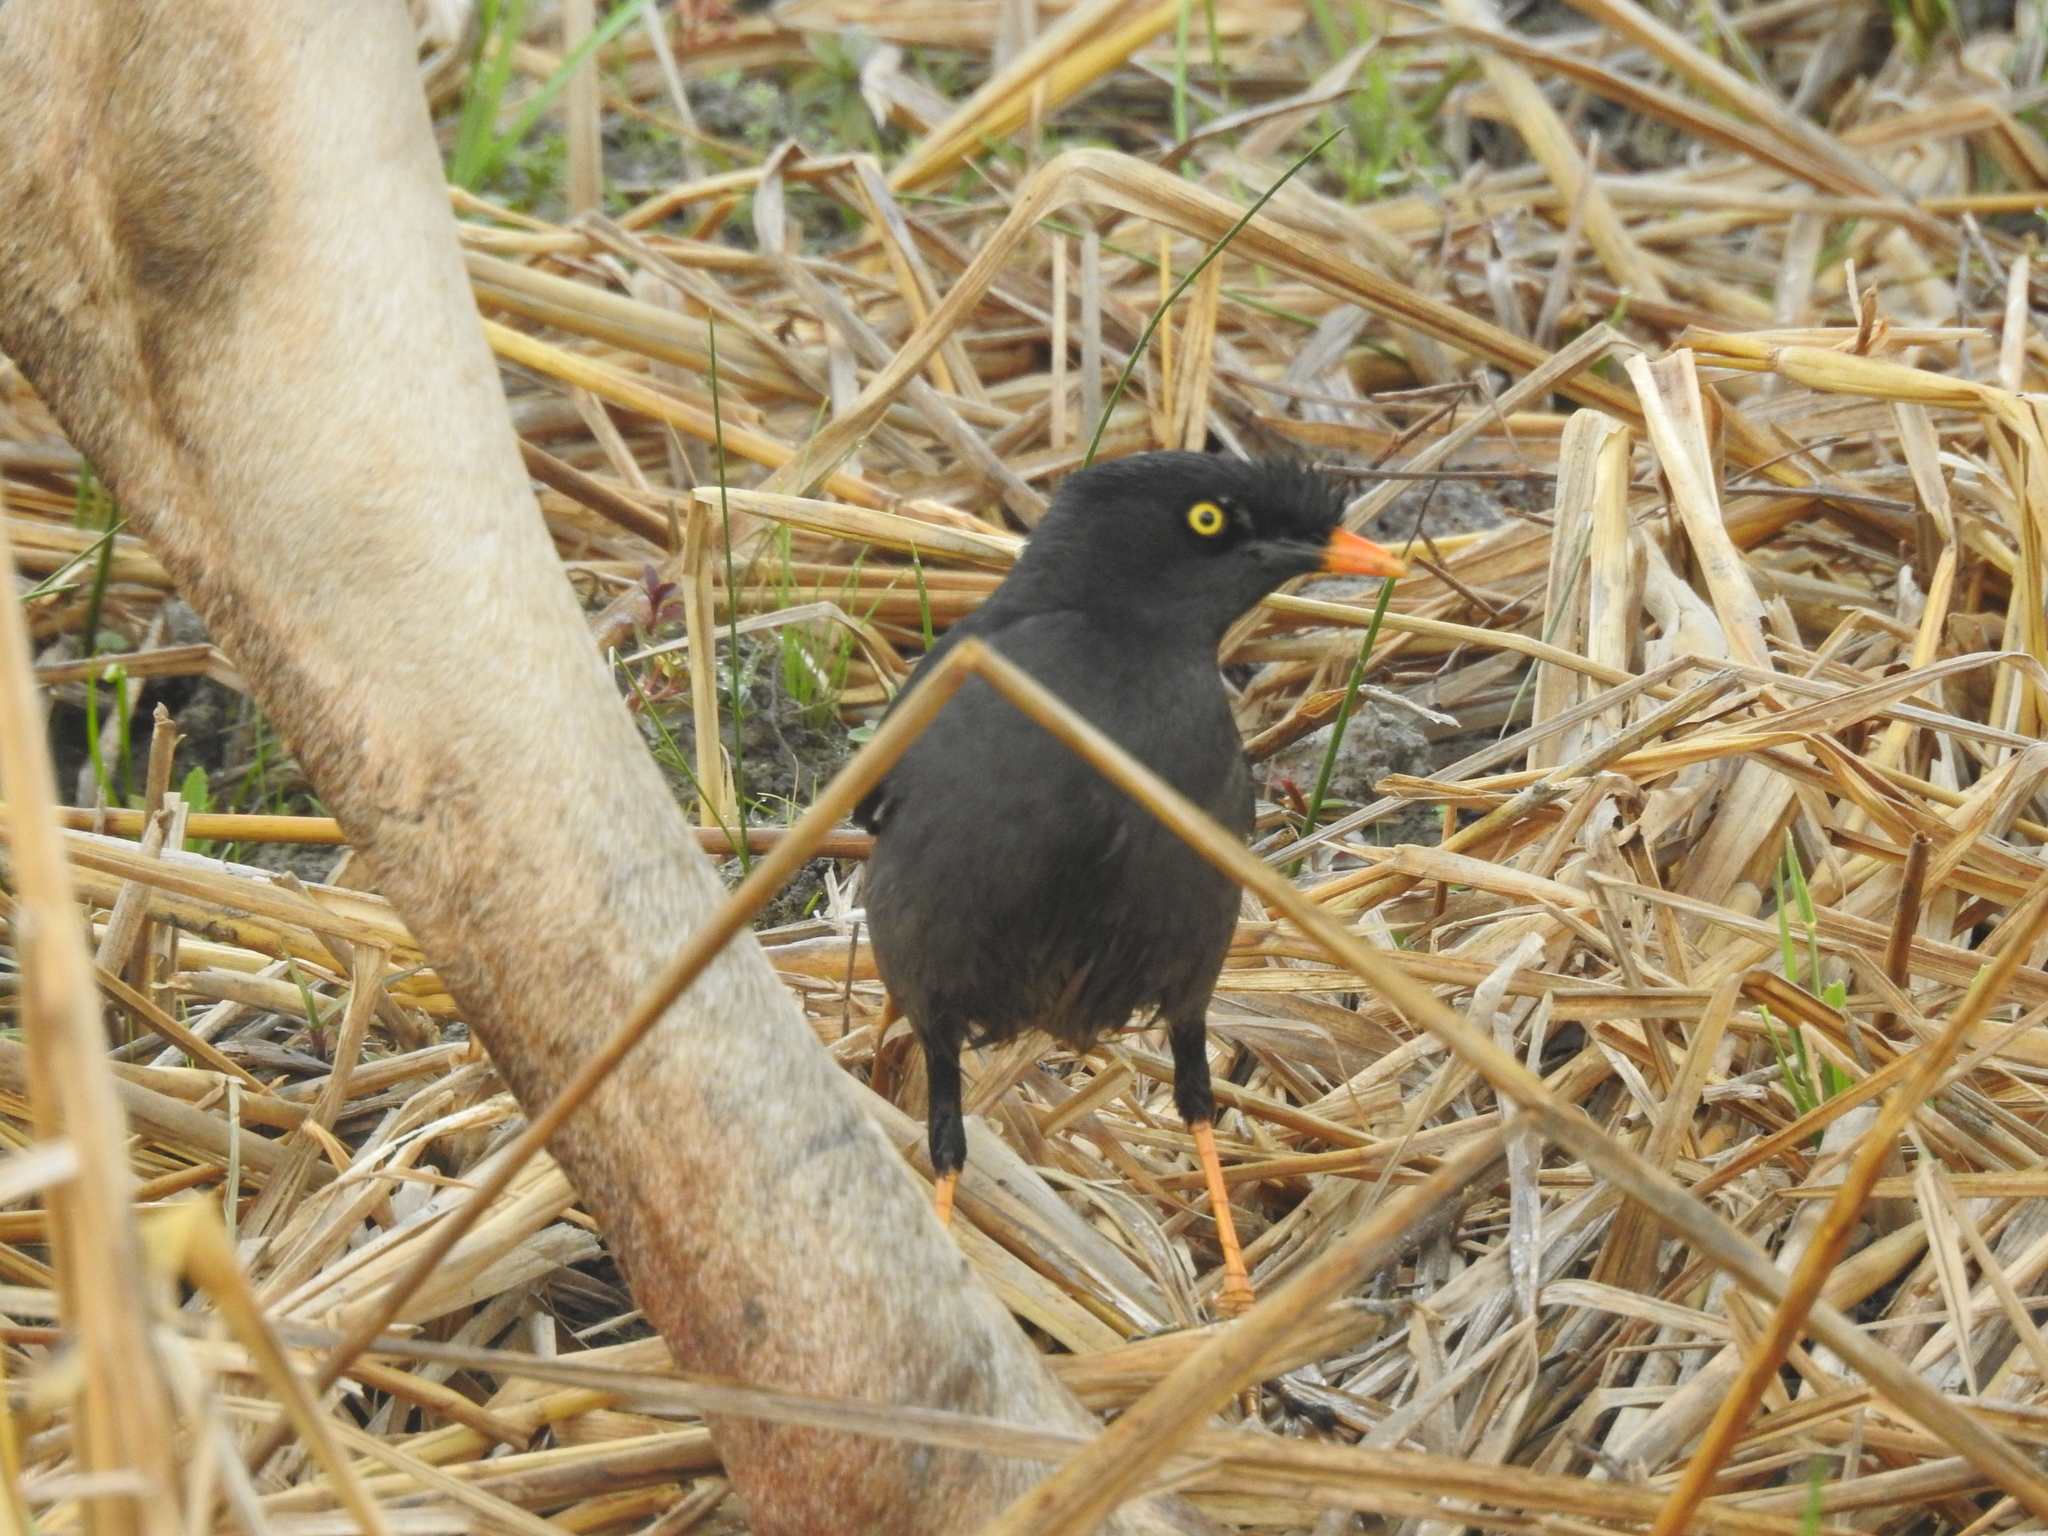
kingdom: Animalia
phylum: Chordata
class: Aves
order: Passeriformes
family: Sturnidae
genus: Acridotheres
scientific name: Acridotheres fuscus
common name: Jungle myna
